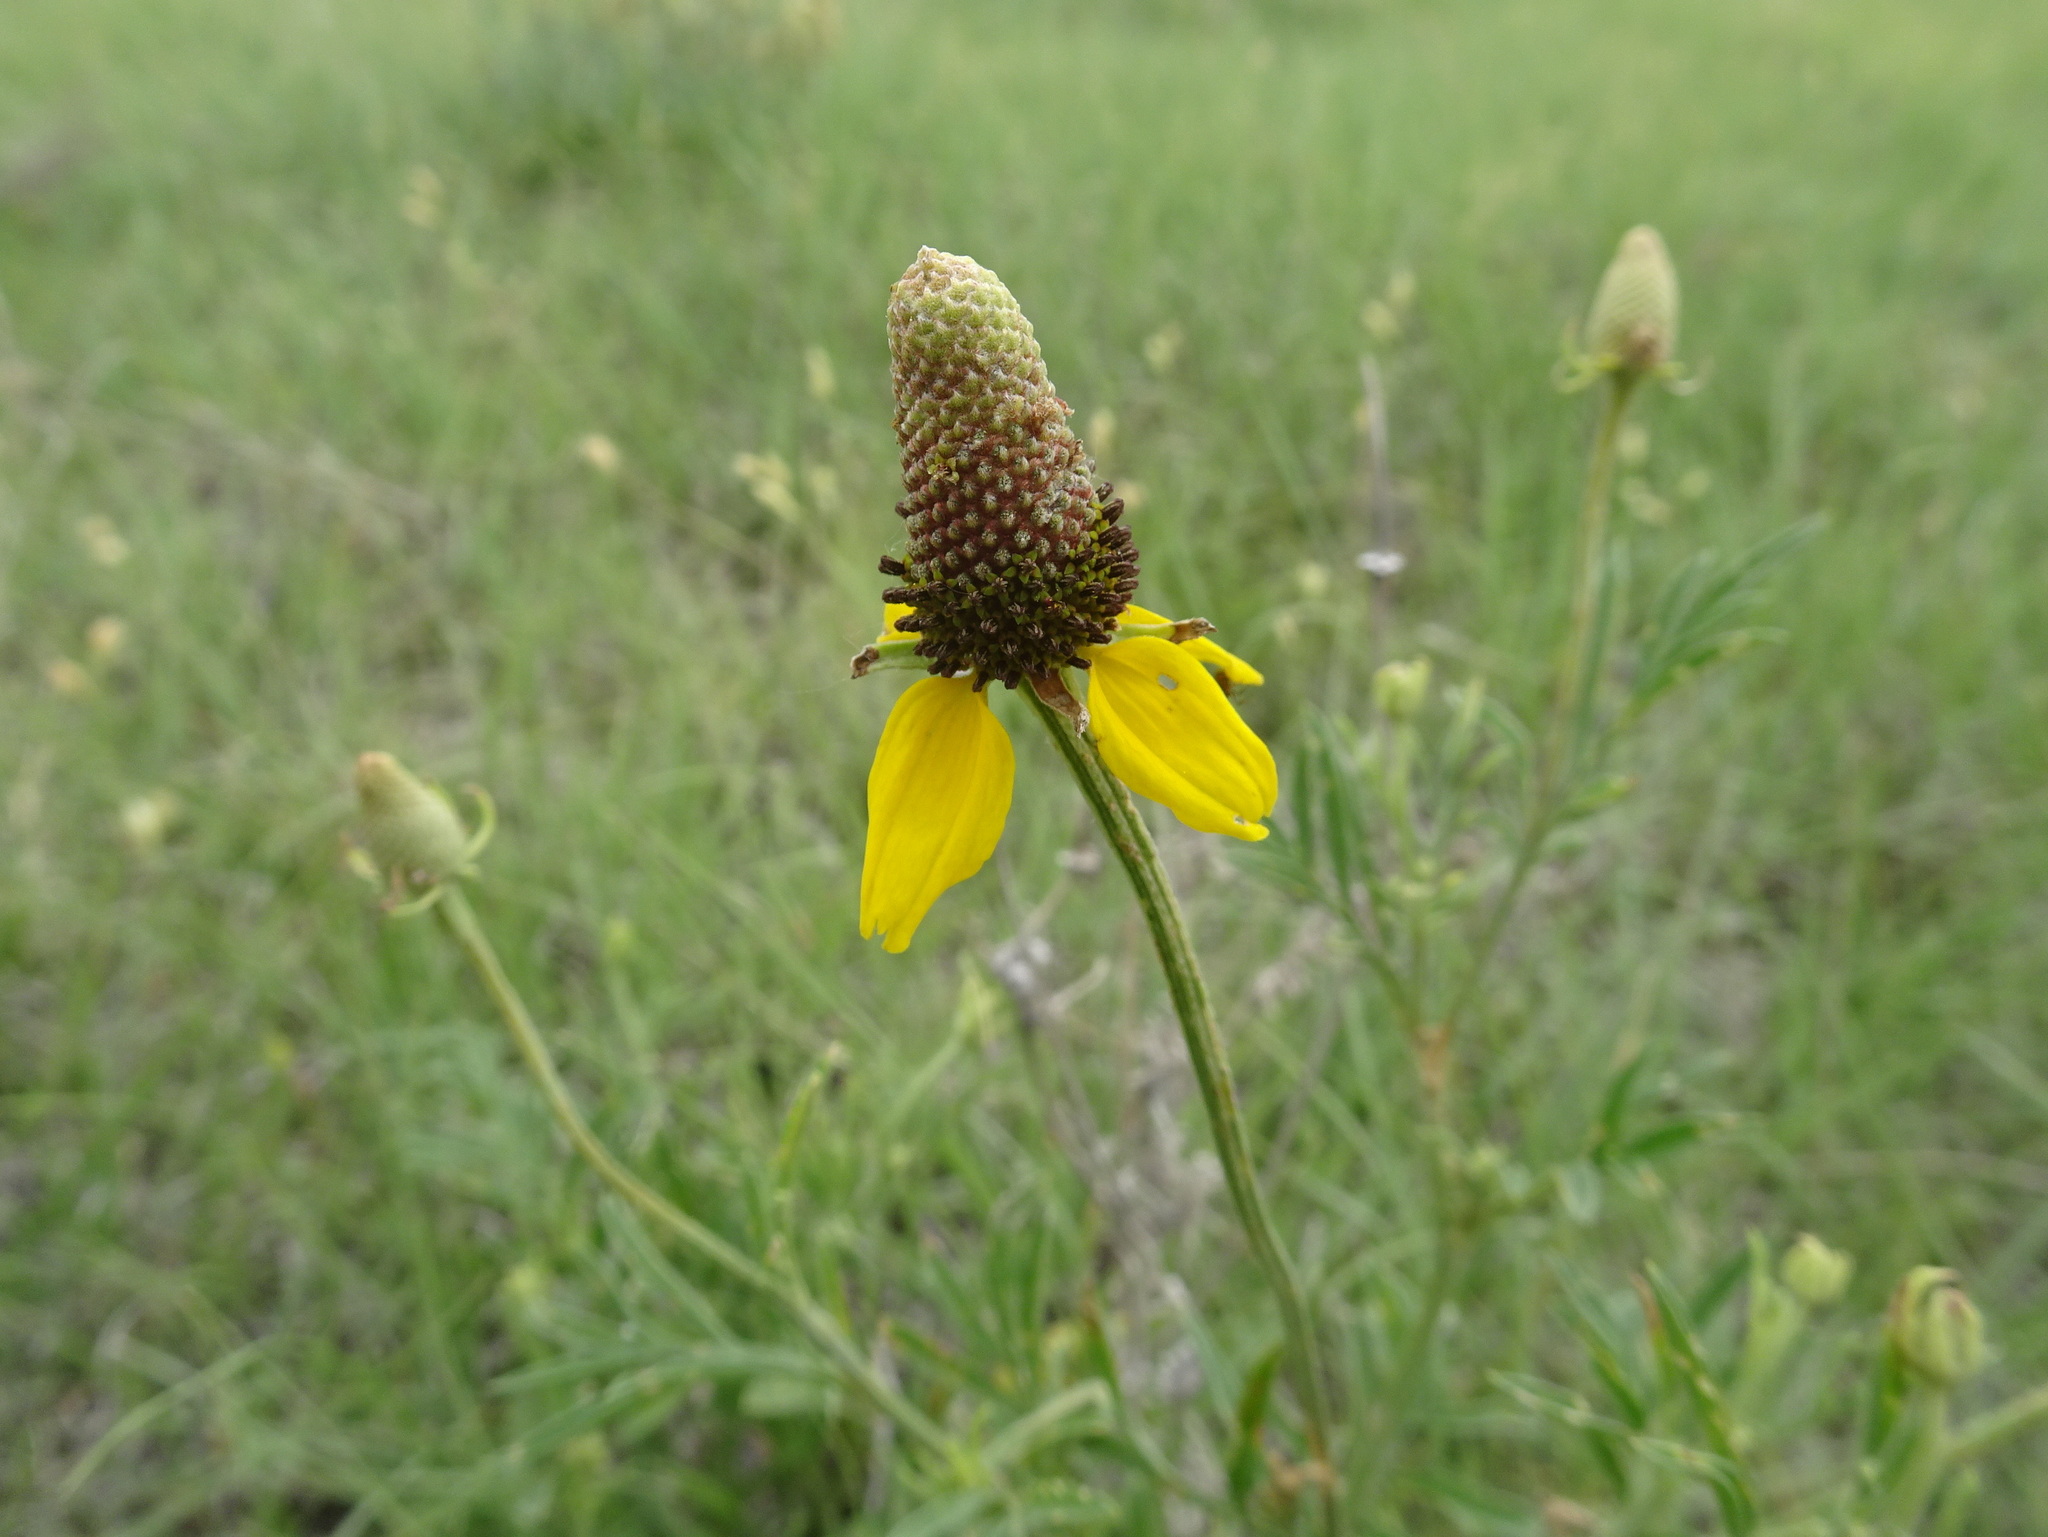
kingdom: Plantae
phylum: Tracheophyta
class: Magnoliopsida
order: Asterales
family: Asteraceae
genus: Ratibida
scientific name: Ratibida columnifera
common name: Prairie coneflower
